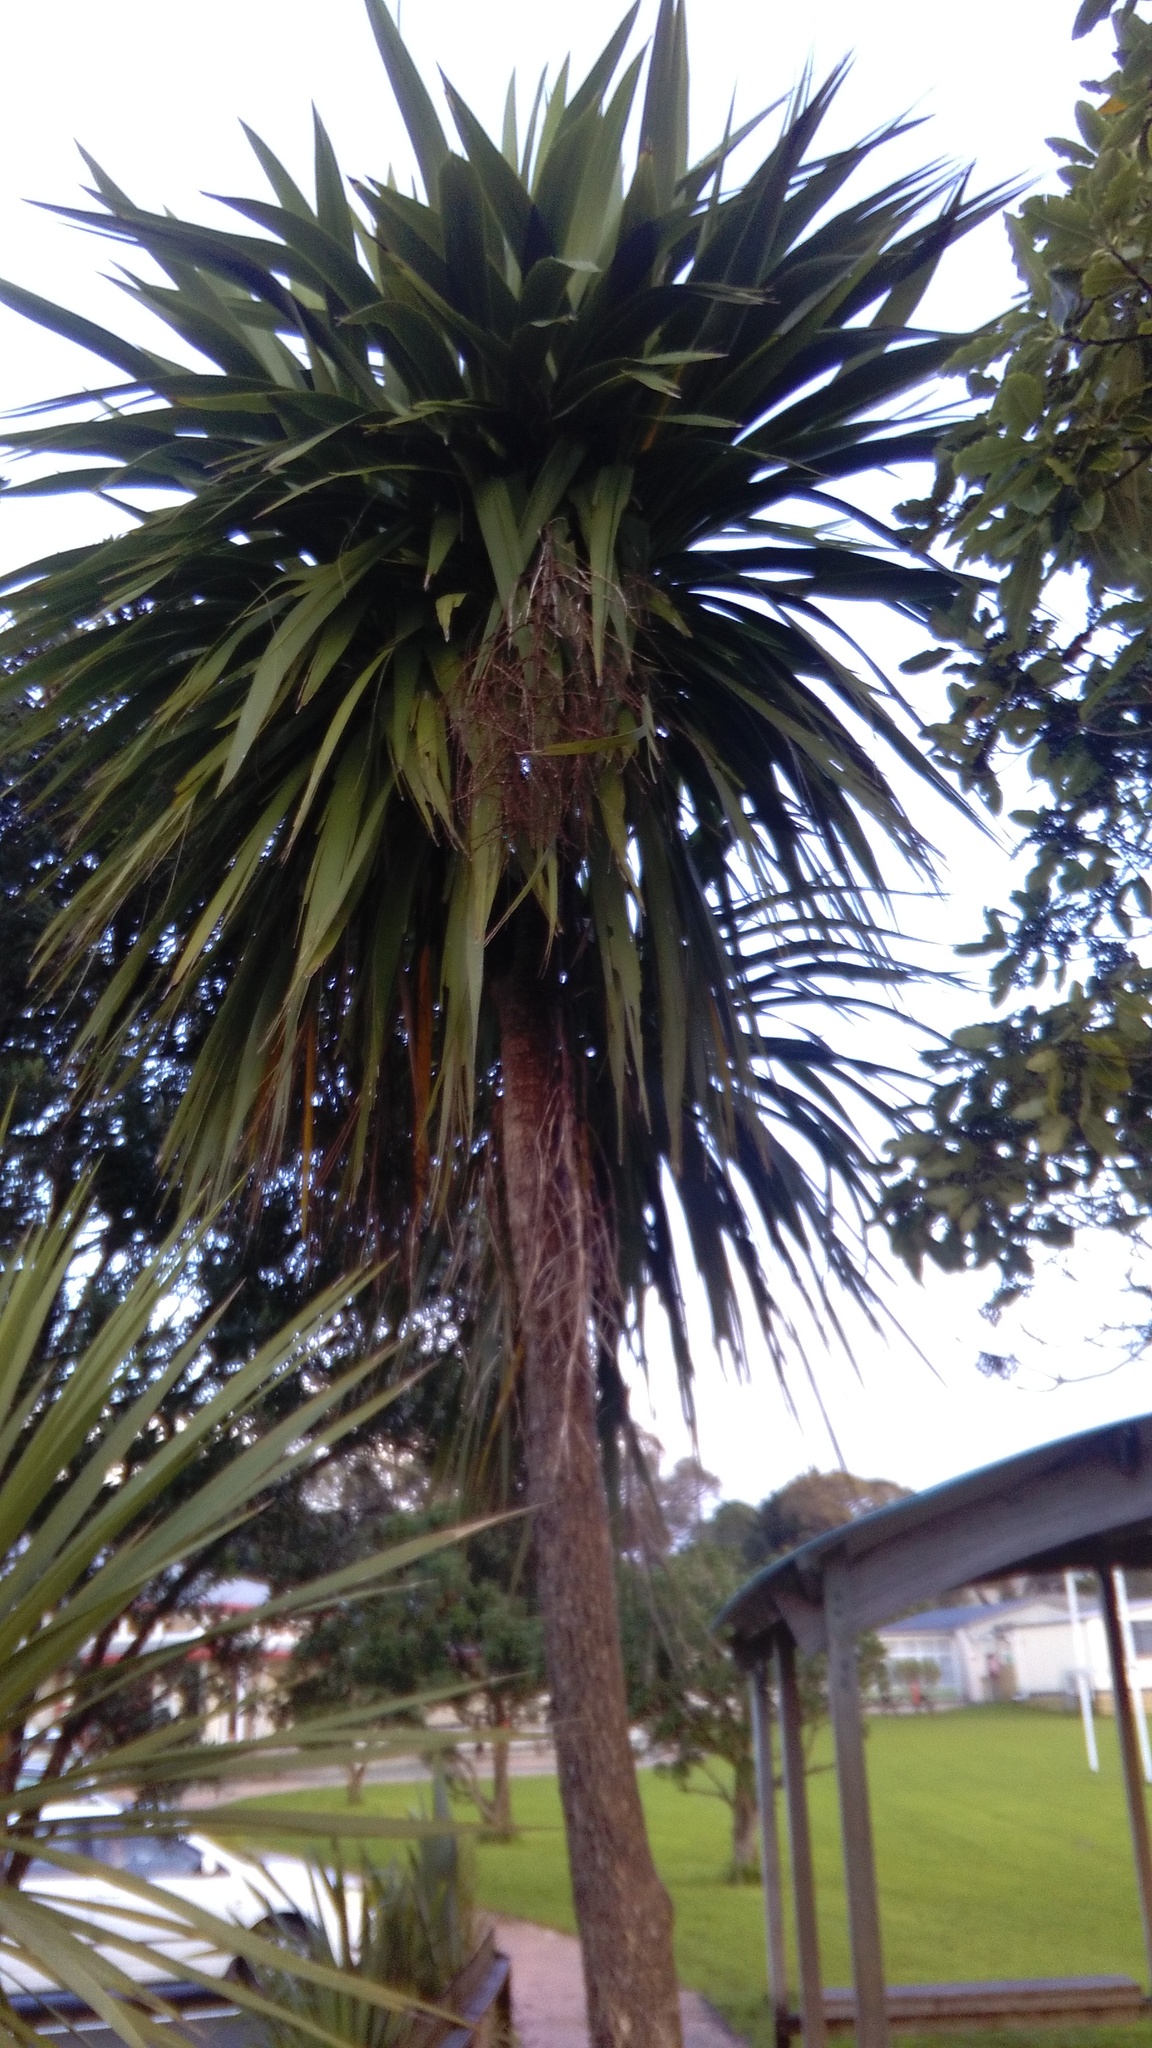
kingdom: Plantae
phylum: Tracheophyta
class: Liliopsida
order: Asparagales
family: Asparagaceae
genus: Cordyline
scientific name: Cordyline australis
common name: Cabbage-palm
